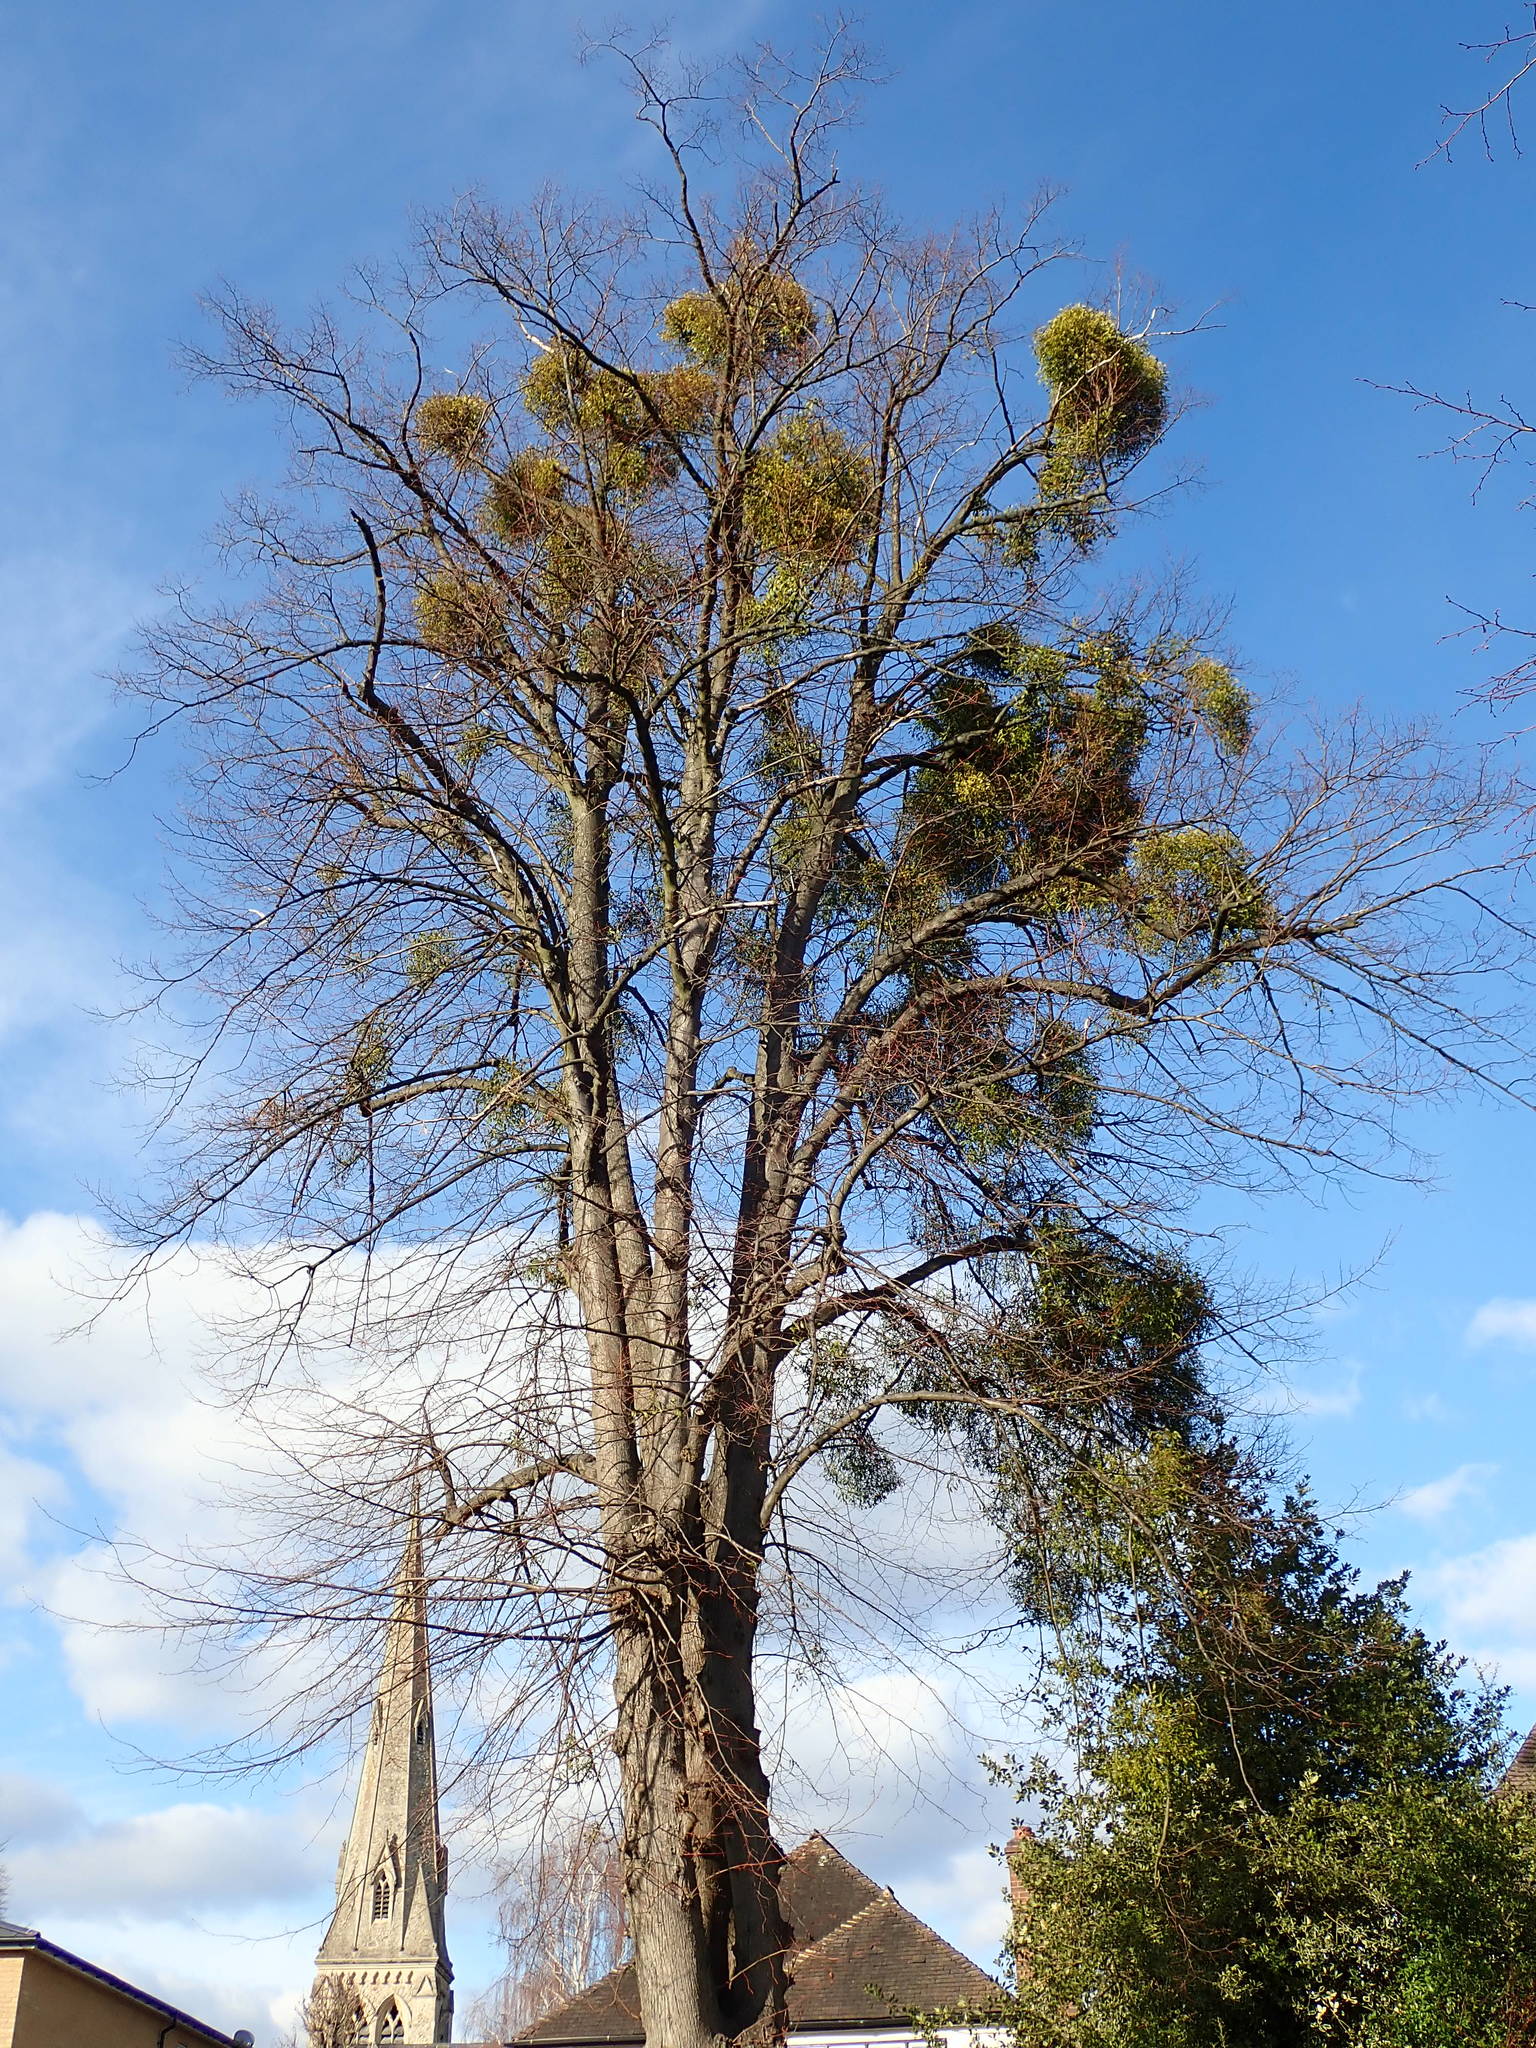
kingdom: Plantae
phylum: Tracheophyta
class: Magnoliopsida
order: Santalales
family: Viscaceae
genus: Viscum
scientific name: Viscum album
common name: Mistletoe
